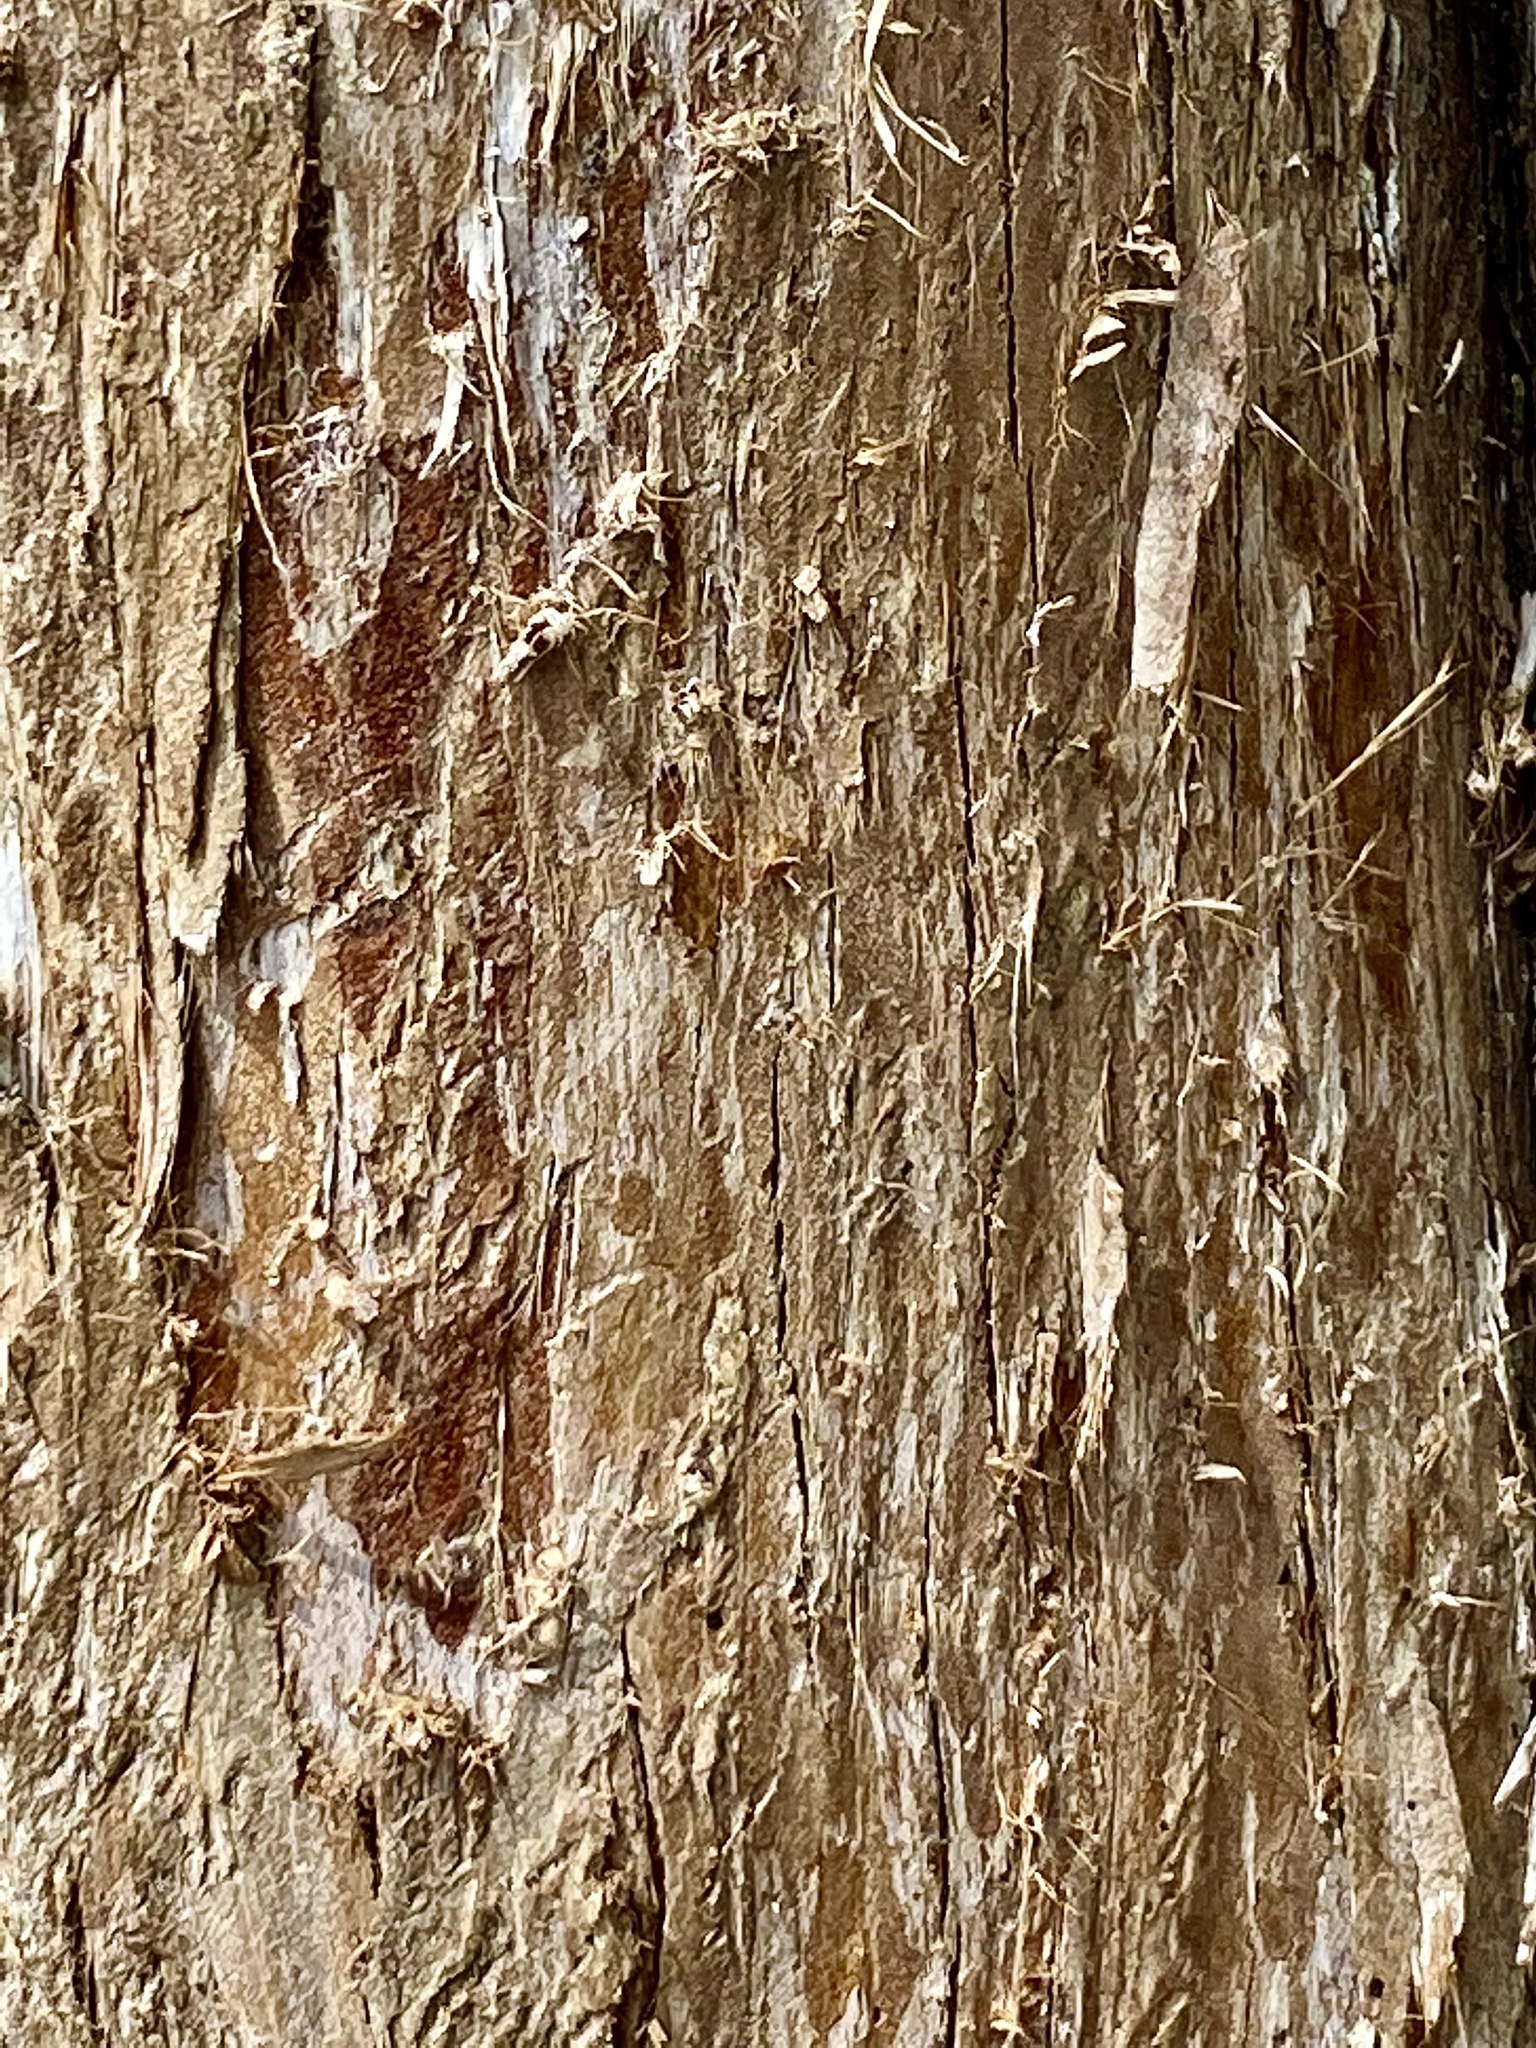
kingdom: Plantae
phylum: Tracheophyta
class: Pinopsida
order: Pinales
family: Cupressaceae
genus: Juniperus
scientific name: Juniperus virginiana
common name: Red juniper
